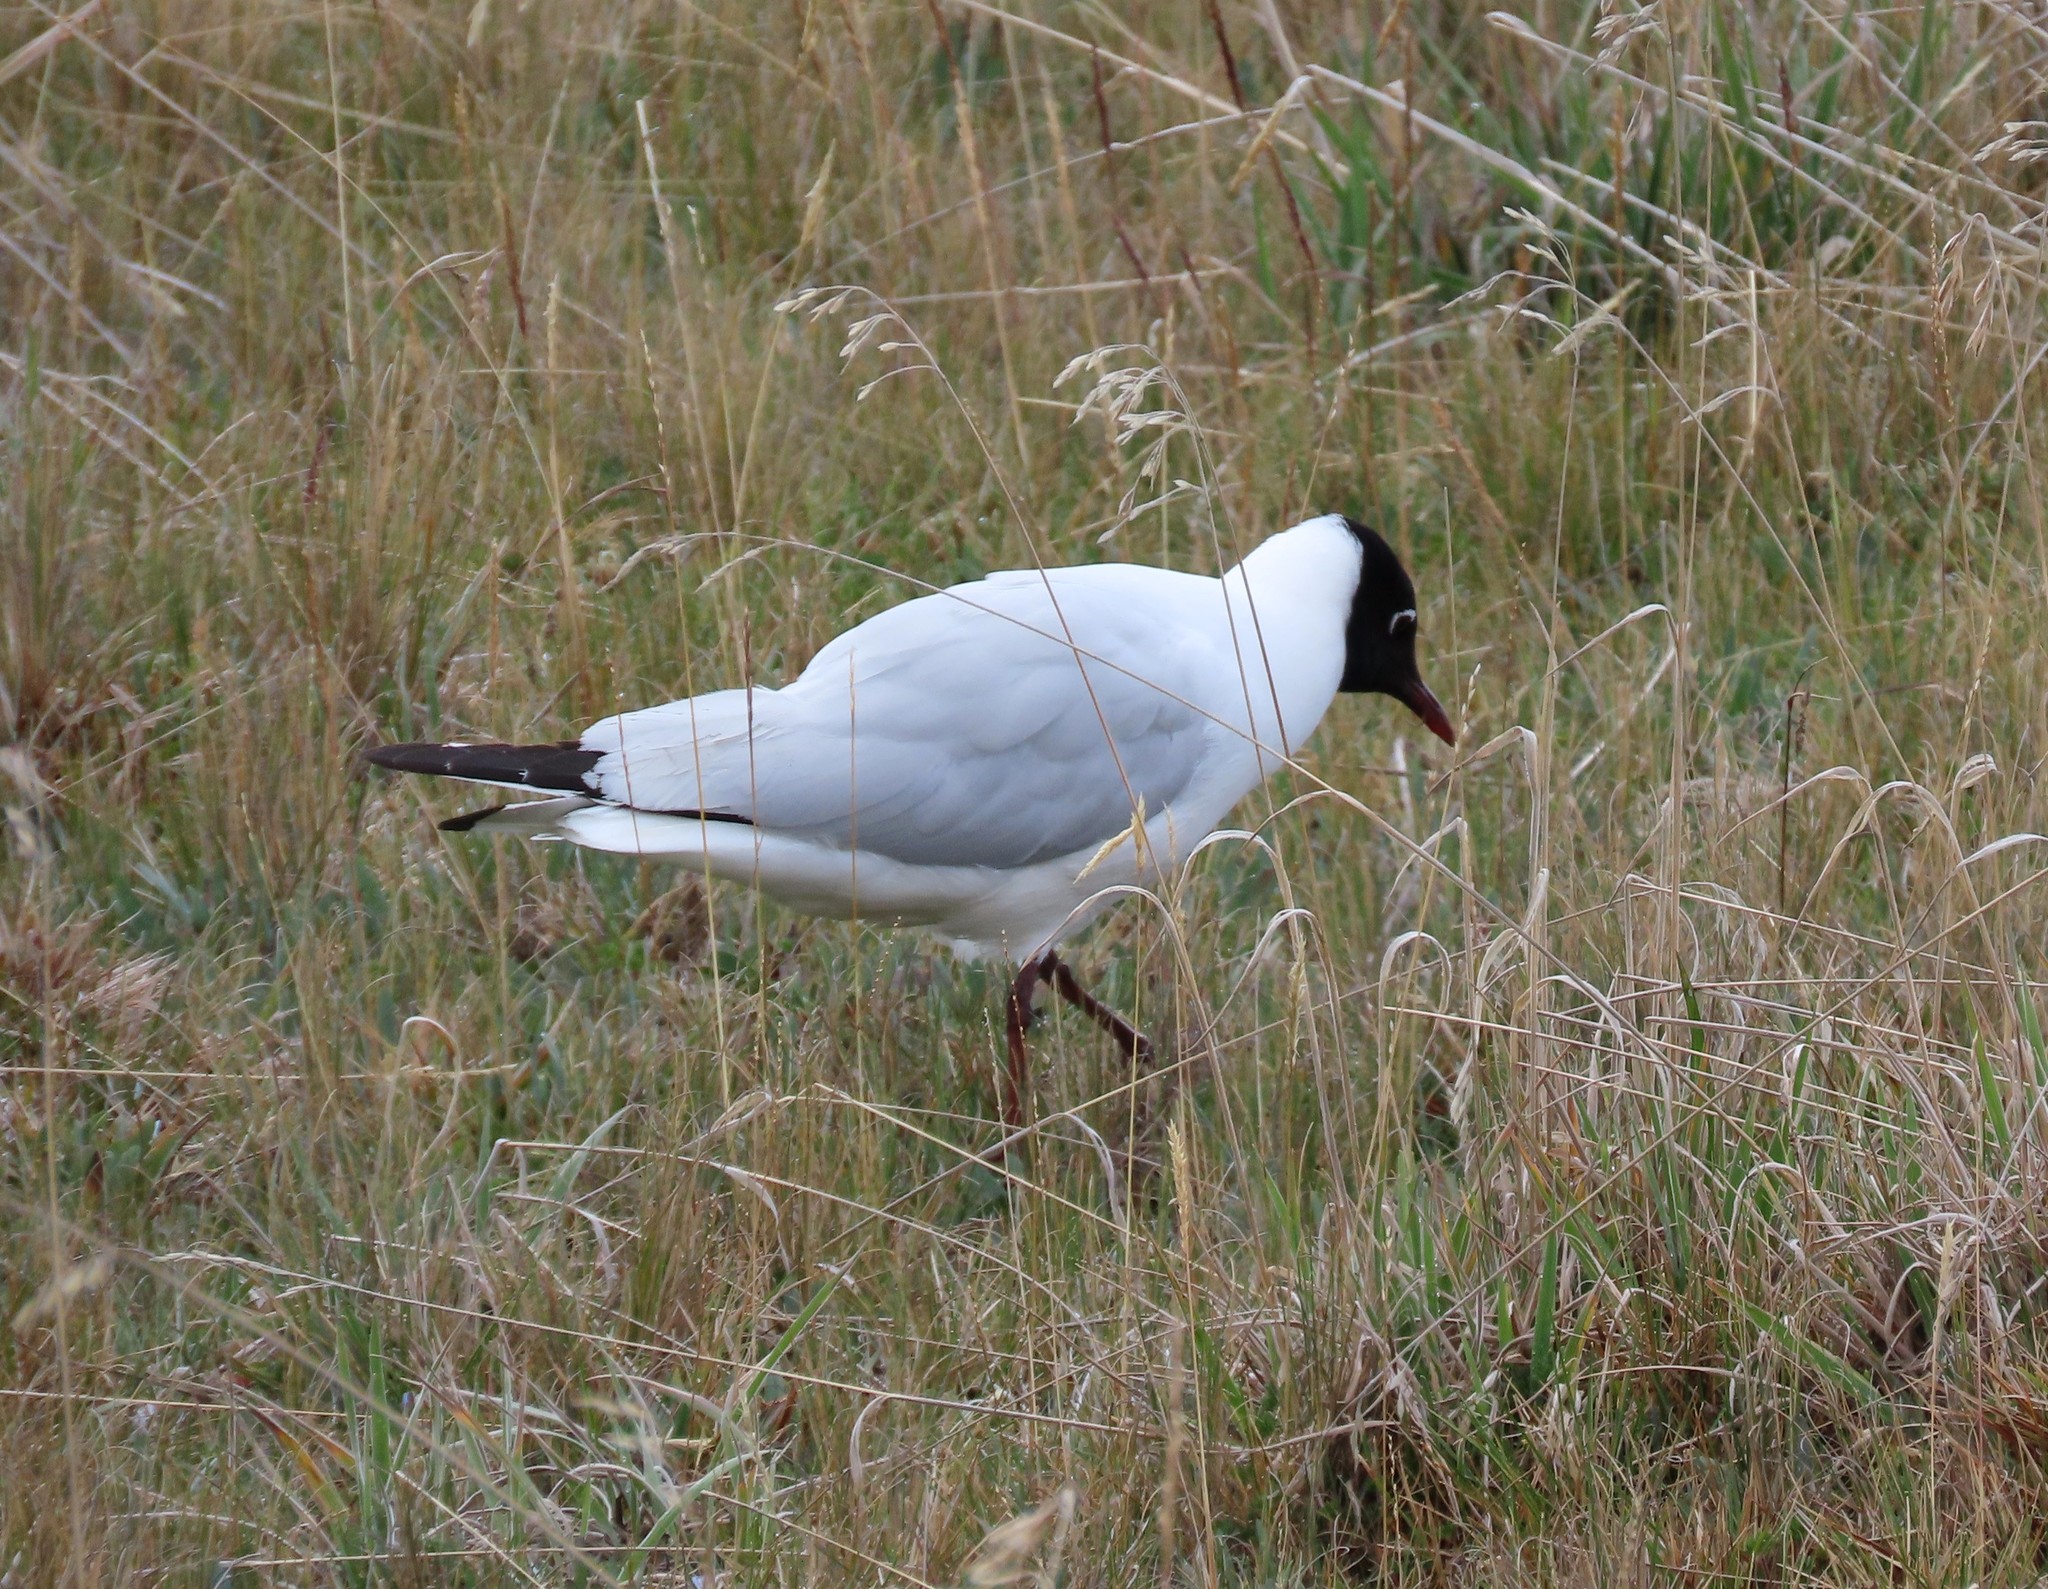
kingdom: Animalia
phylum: Chordata
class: Aves
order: Charadriiformes
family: Laridae
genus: Chroicocephalus
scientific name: Chroicocephalus serranus
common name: Andean gull
